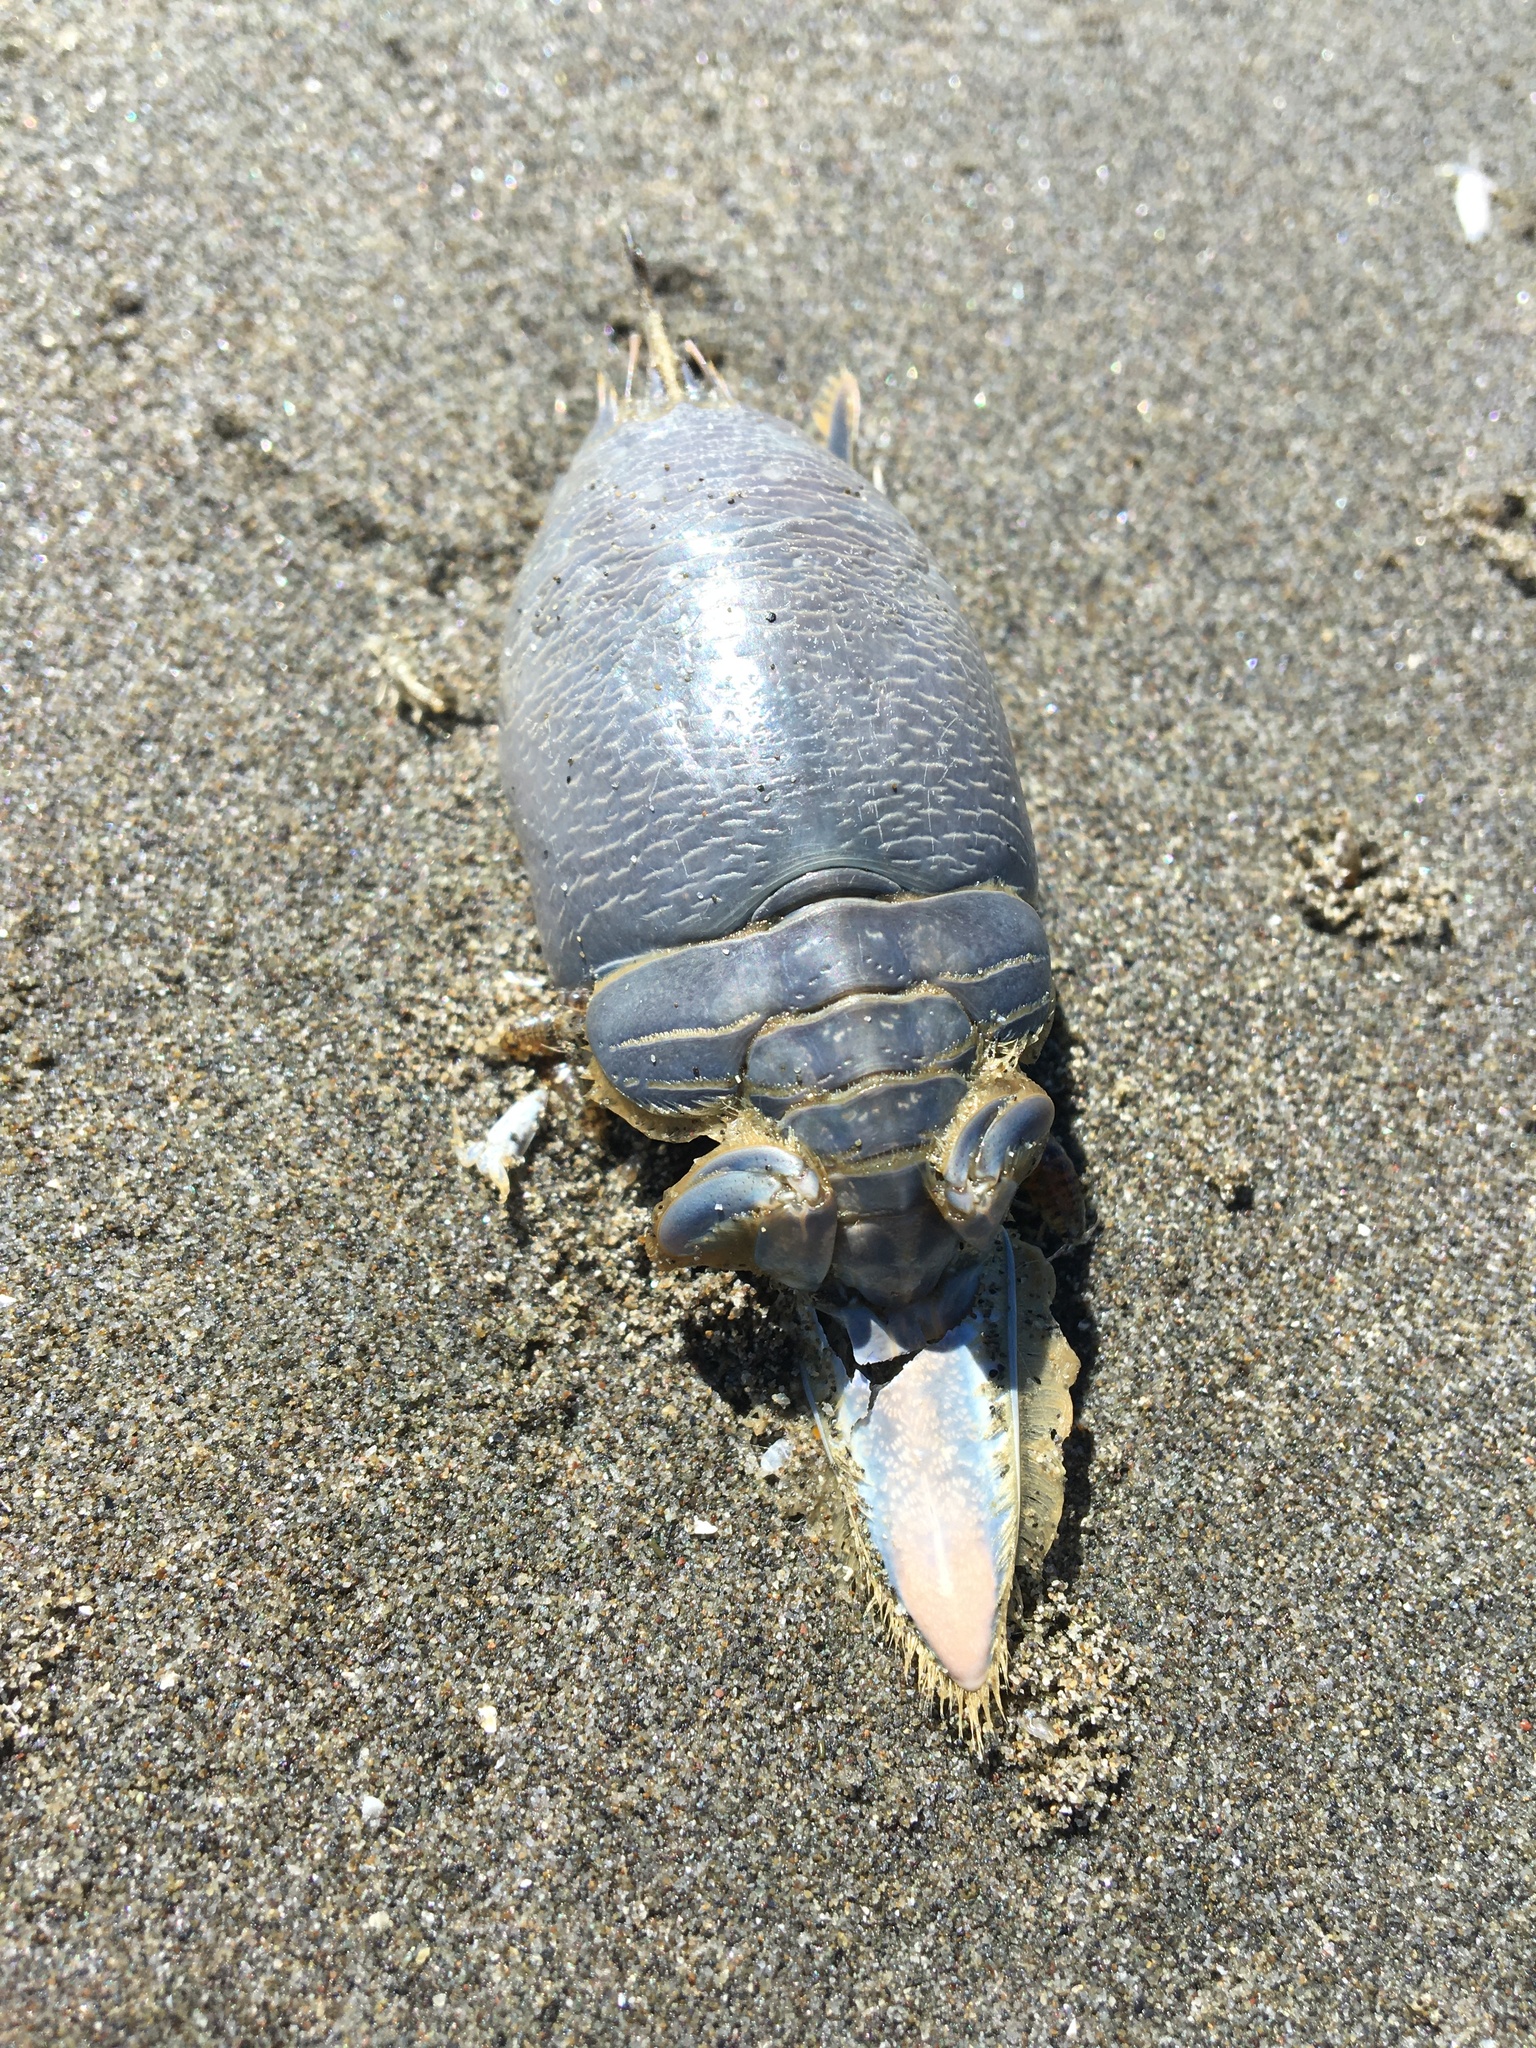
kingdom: Animalia
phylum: Arthropoda
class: Malacostraca
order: Decapoda
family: Hippidae
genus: Emerita
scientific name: Emerita analoga
